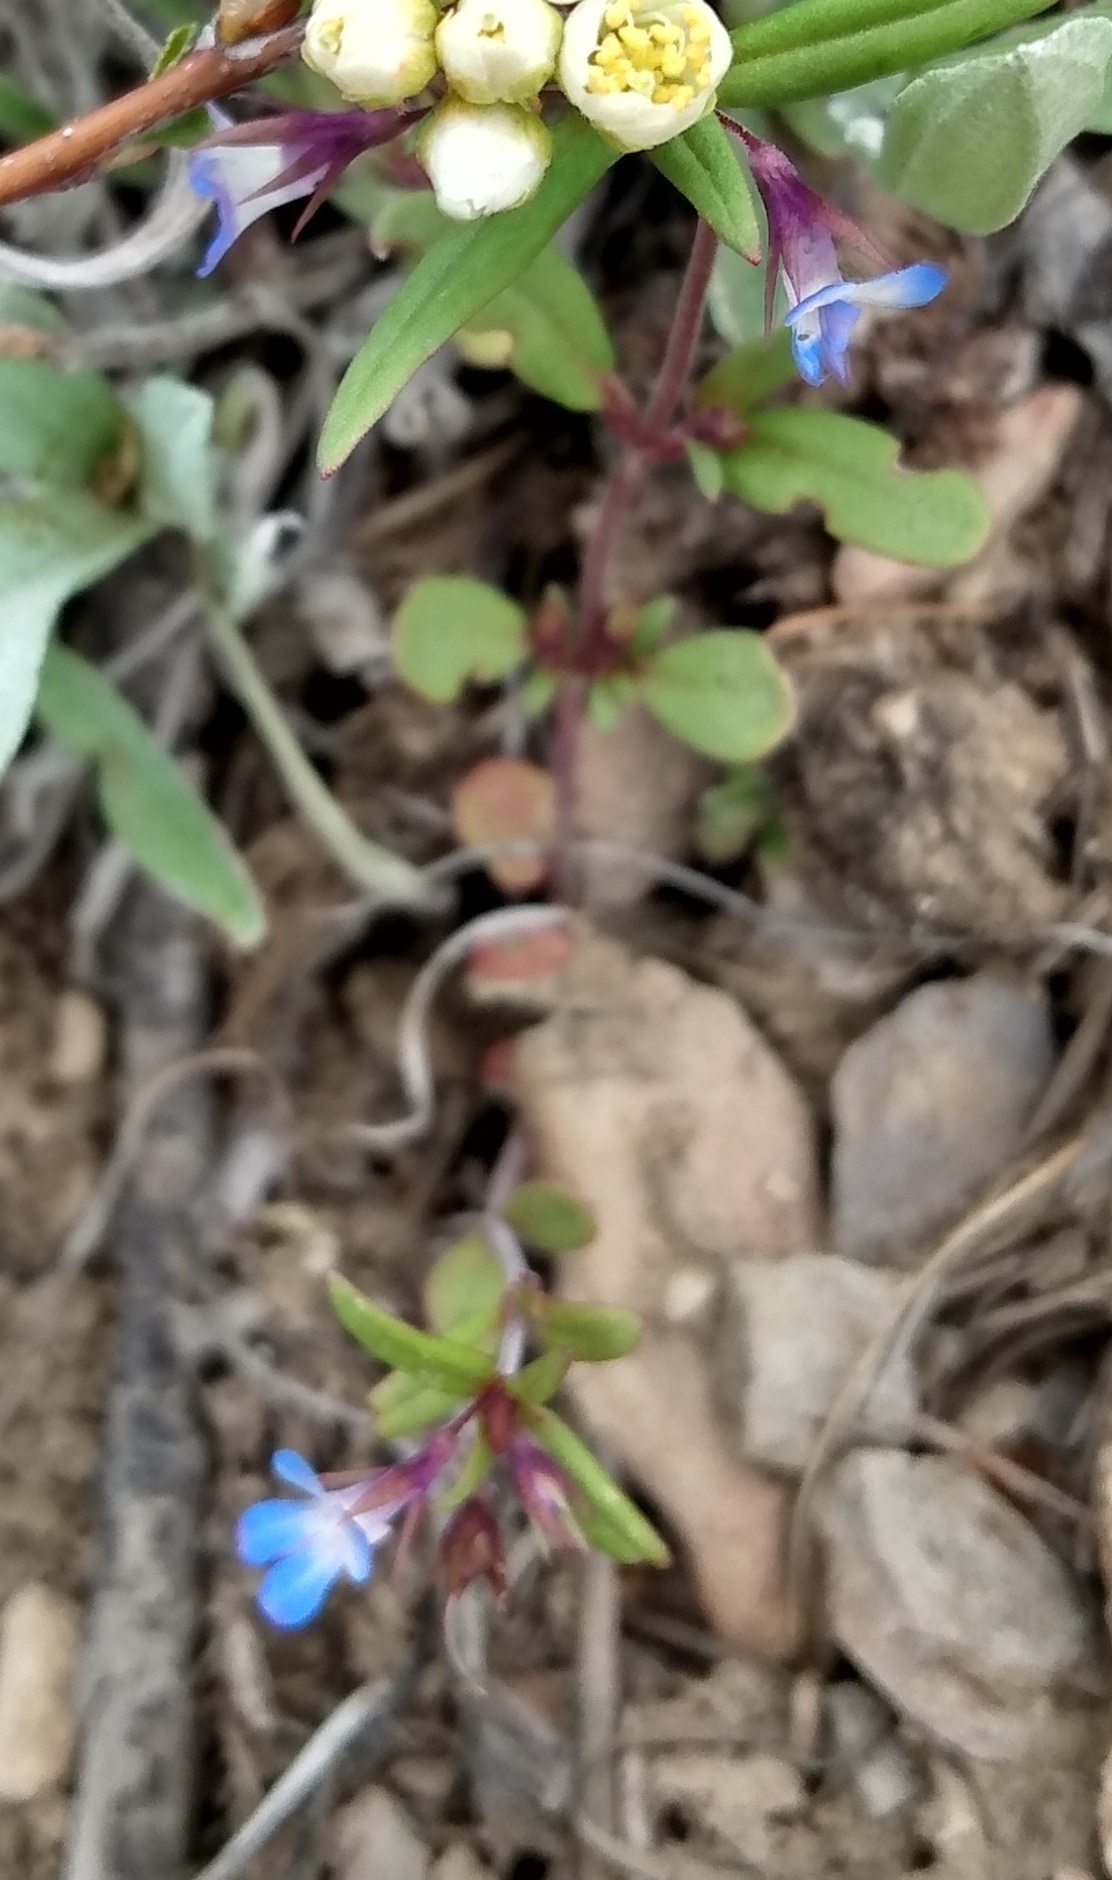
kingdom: Plantae
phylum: Tracheophyta
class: Magnoliopsida
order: Lamiales
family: Plantaginaceae
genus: Collinsia
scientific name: Collinsia parviflora
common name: Blue-lips
